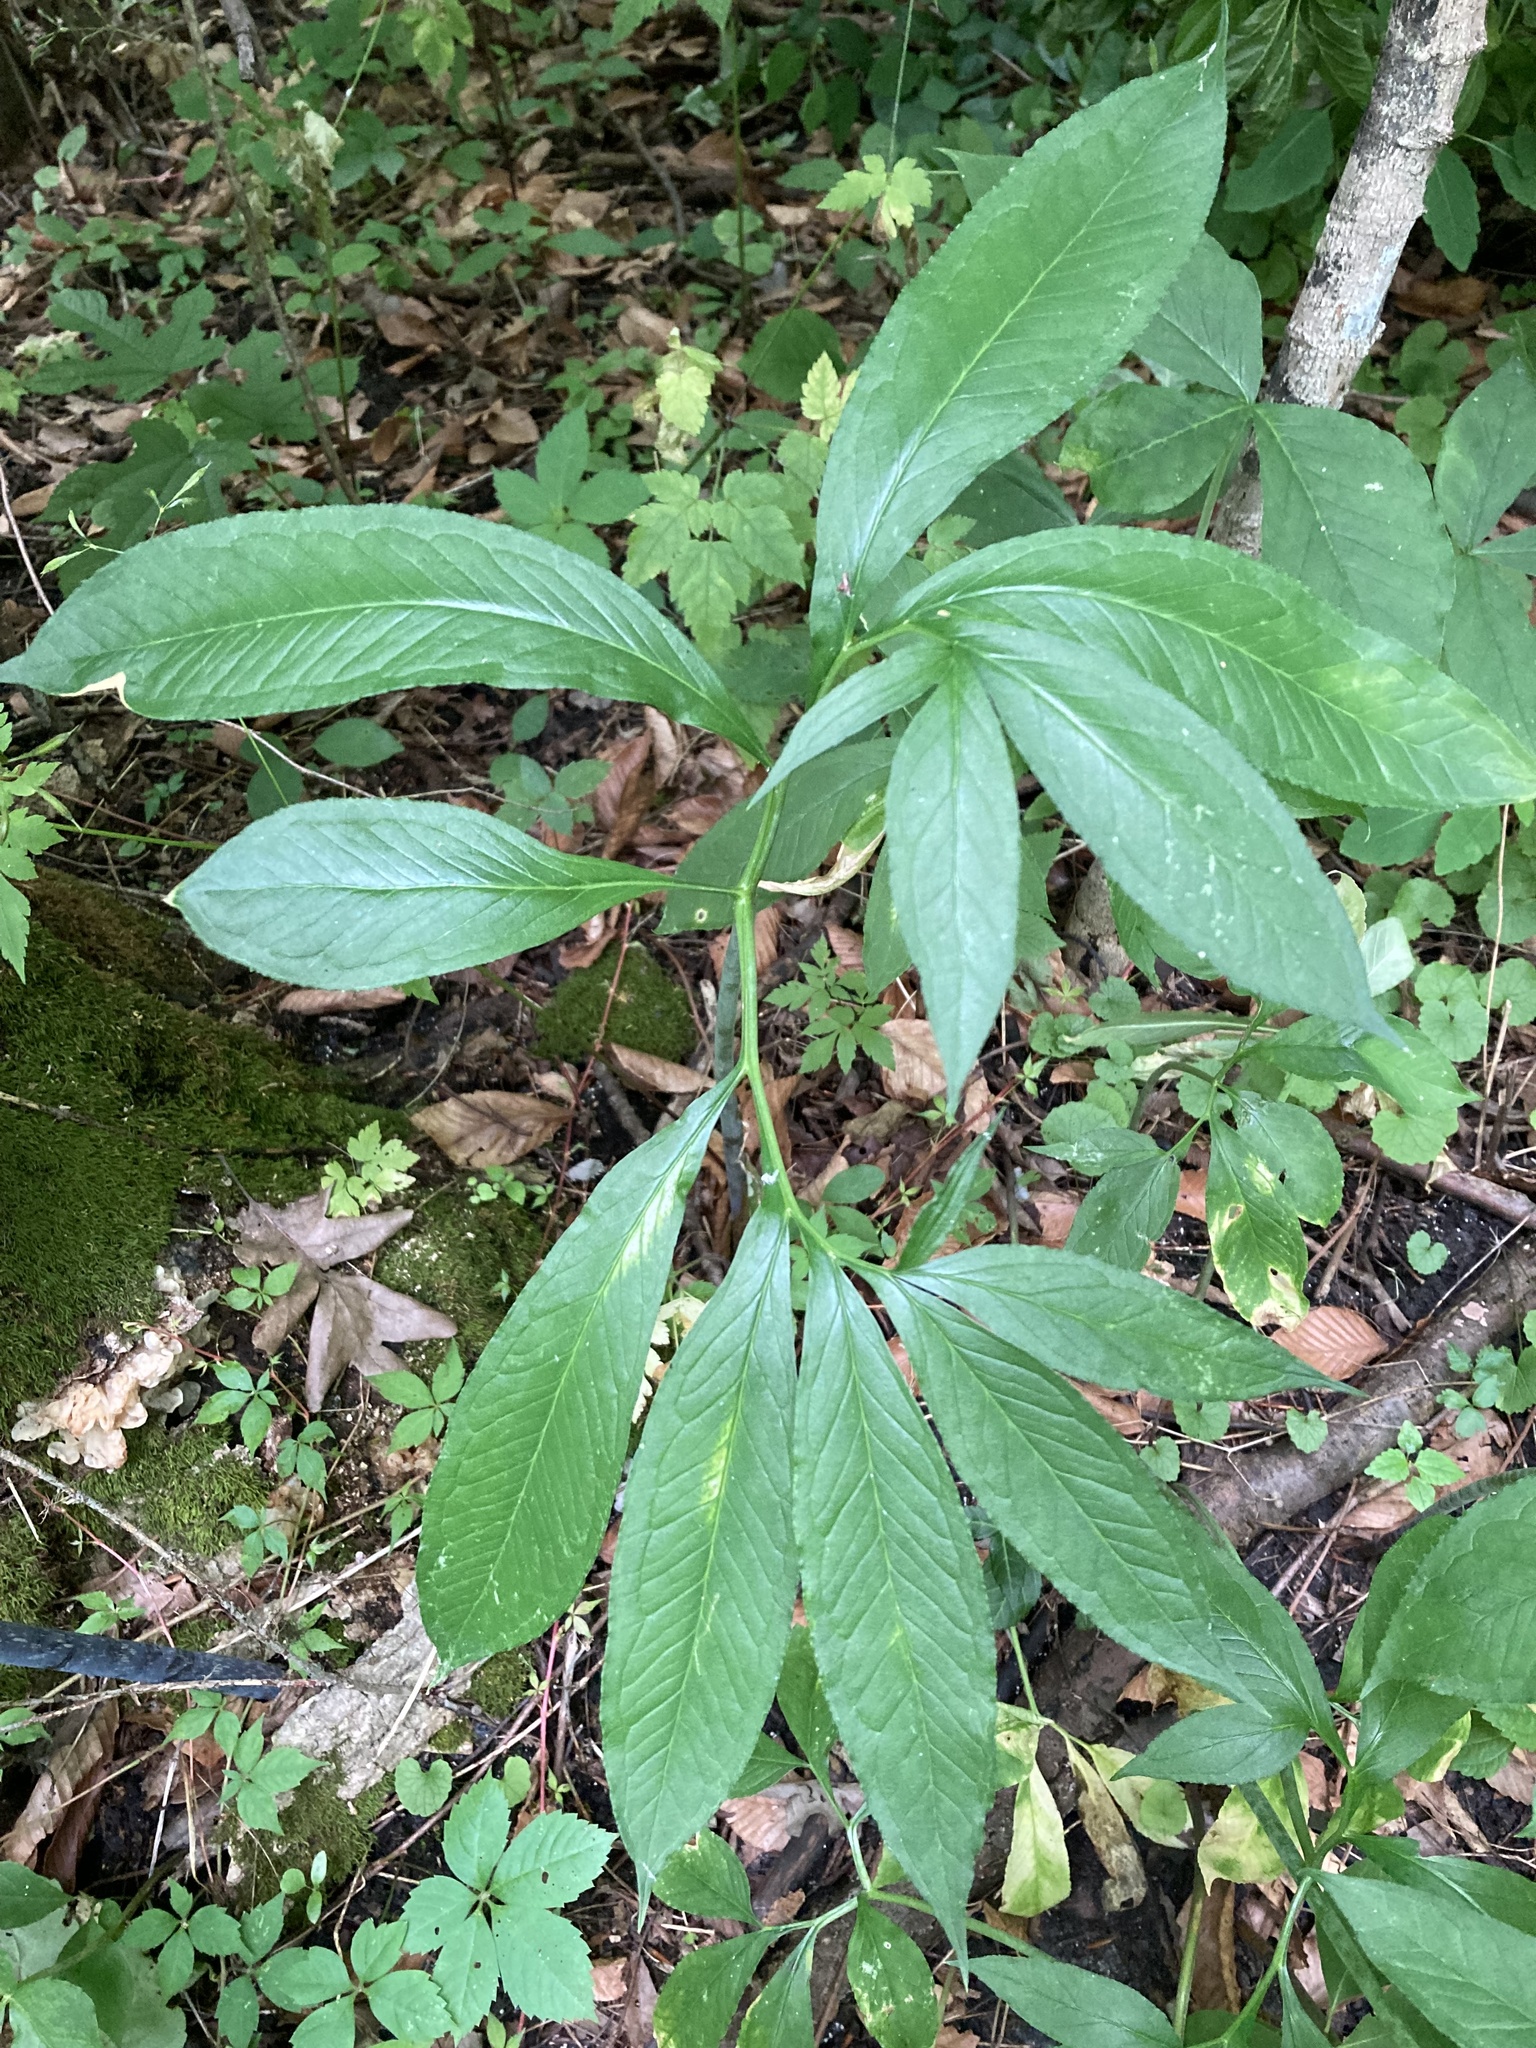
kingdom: Plantae
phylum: Tracheophyta
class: Liliopsida
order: Alismatales
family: Araceae
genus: Arisaema
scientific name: Arisaema dracontium
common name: Dragon-arum
